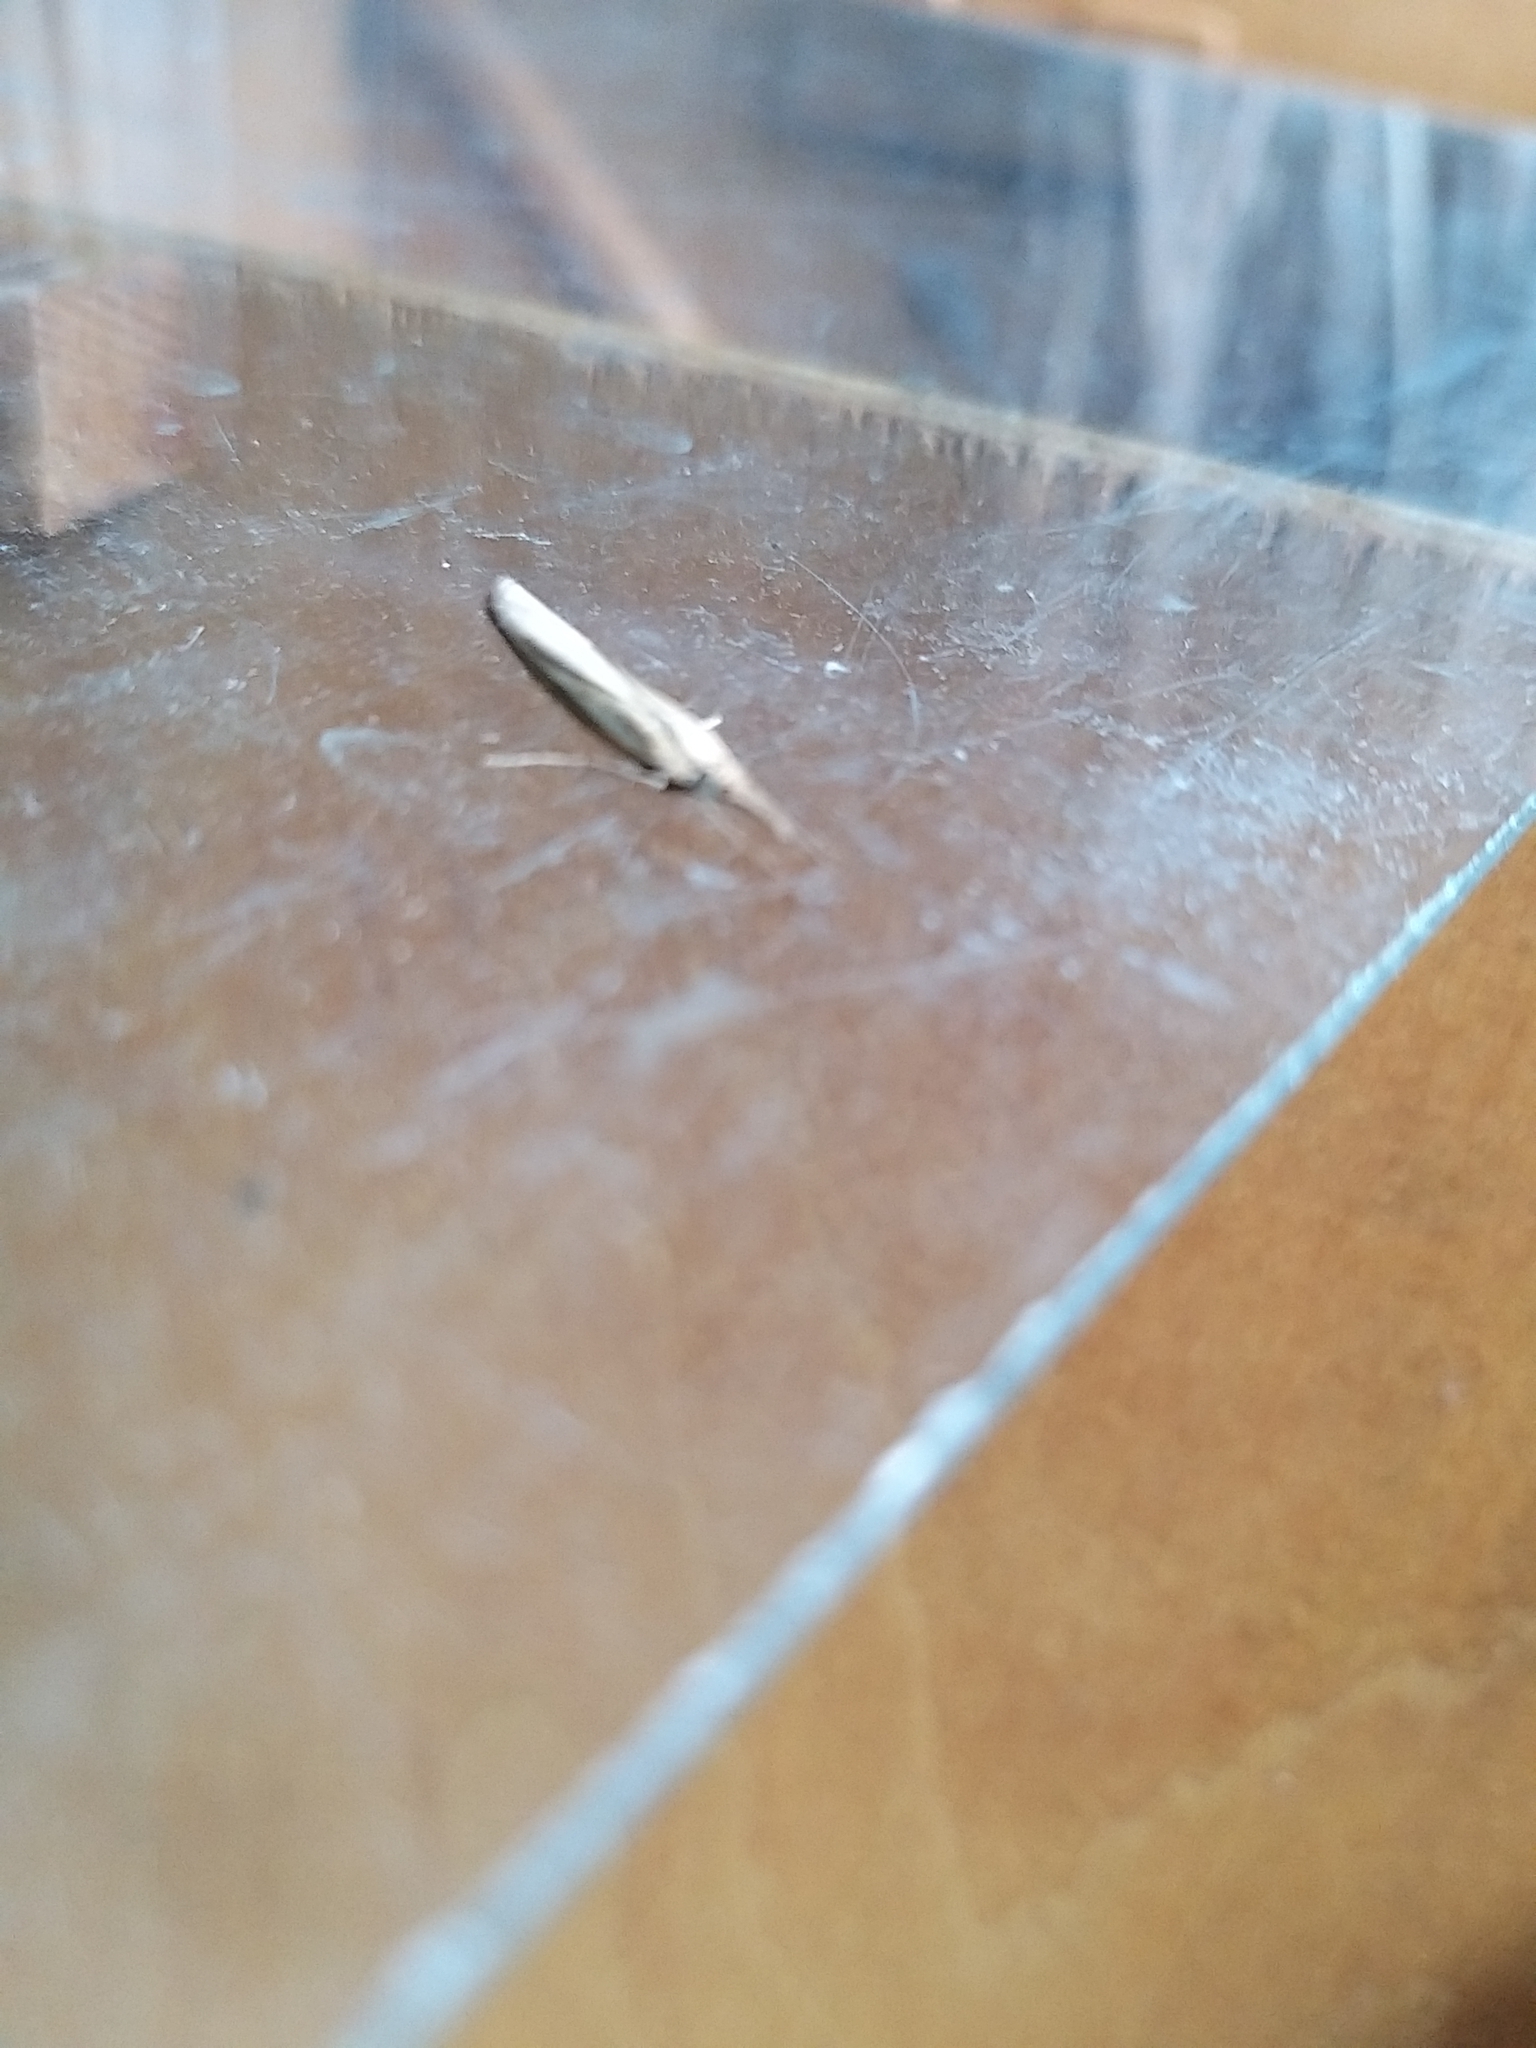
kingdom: Animalia
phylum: Arthropoda
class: Insecta
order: Lepidoptera
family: Crambidae
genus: Agriphila
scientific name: Agriphila straminella
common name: Straw grass-veneer
